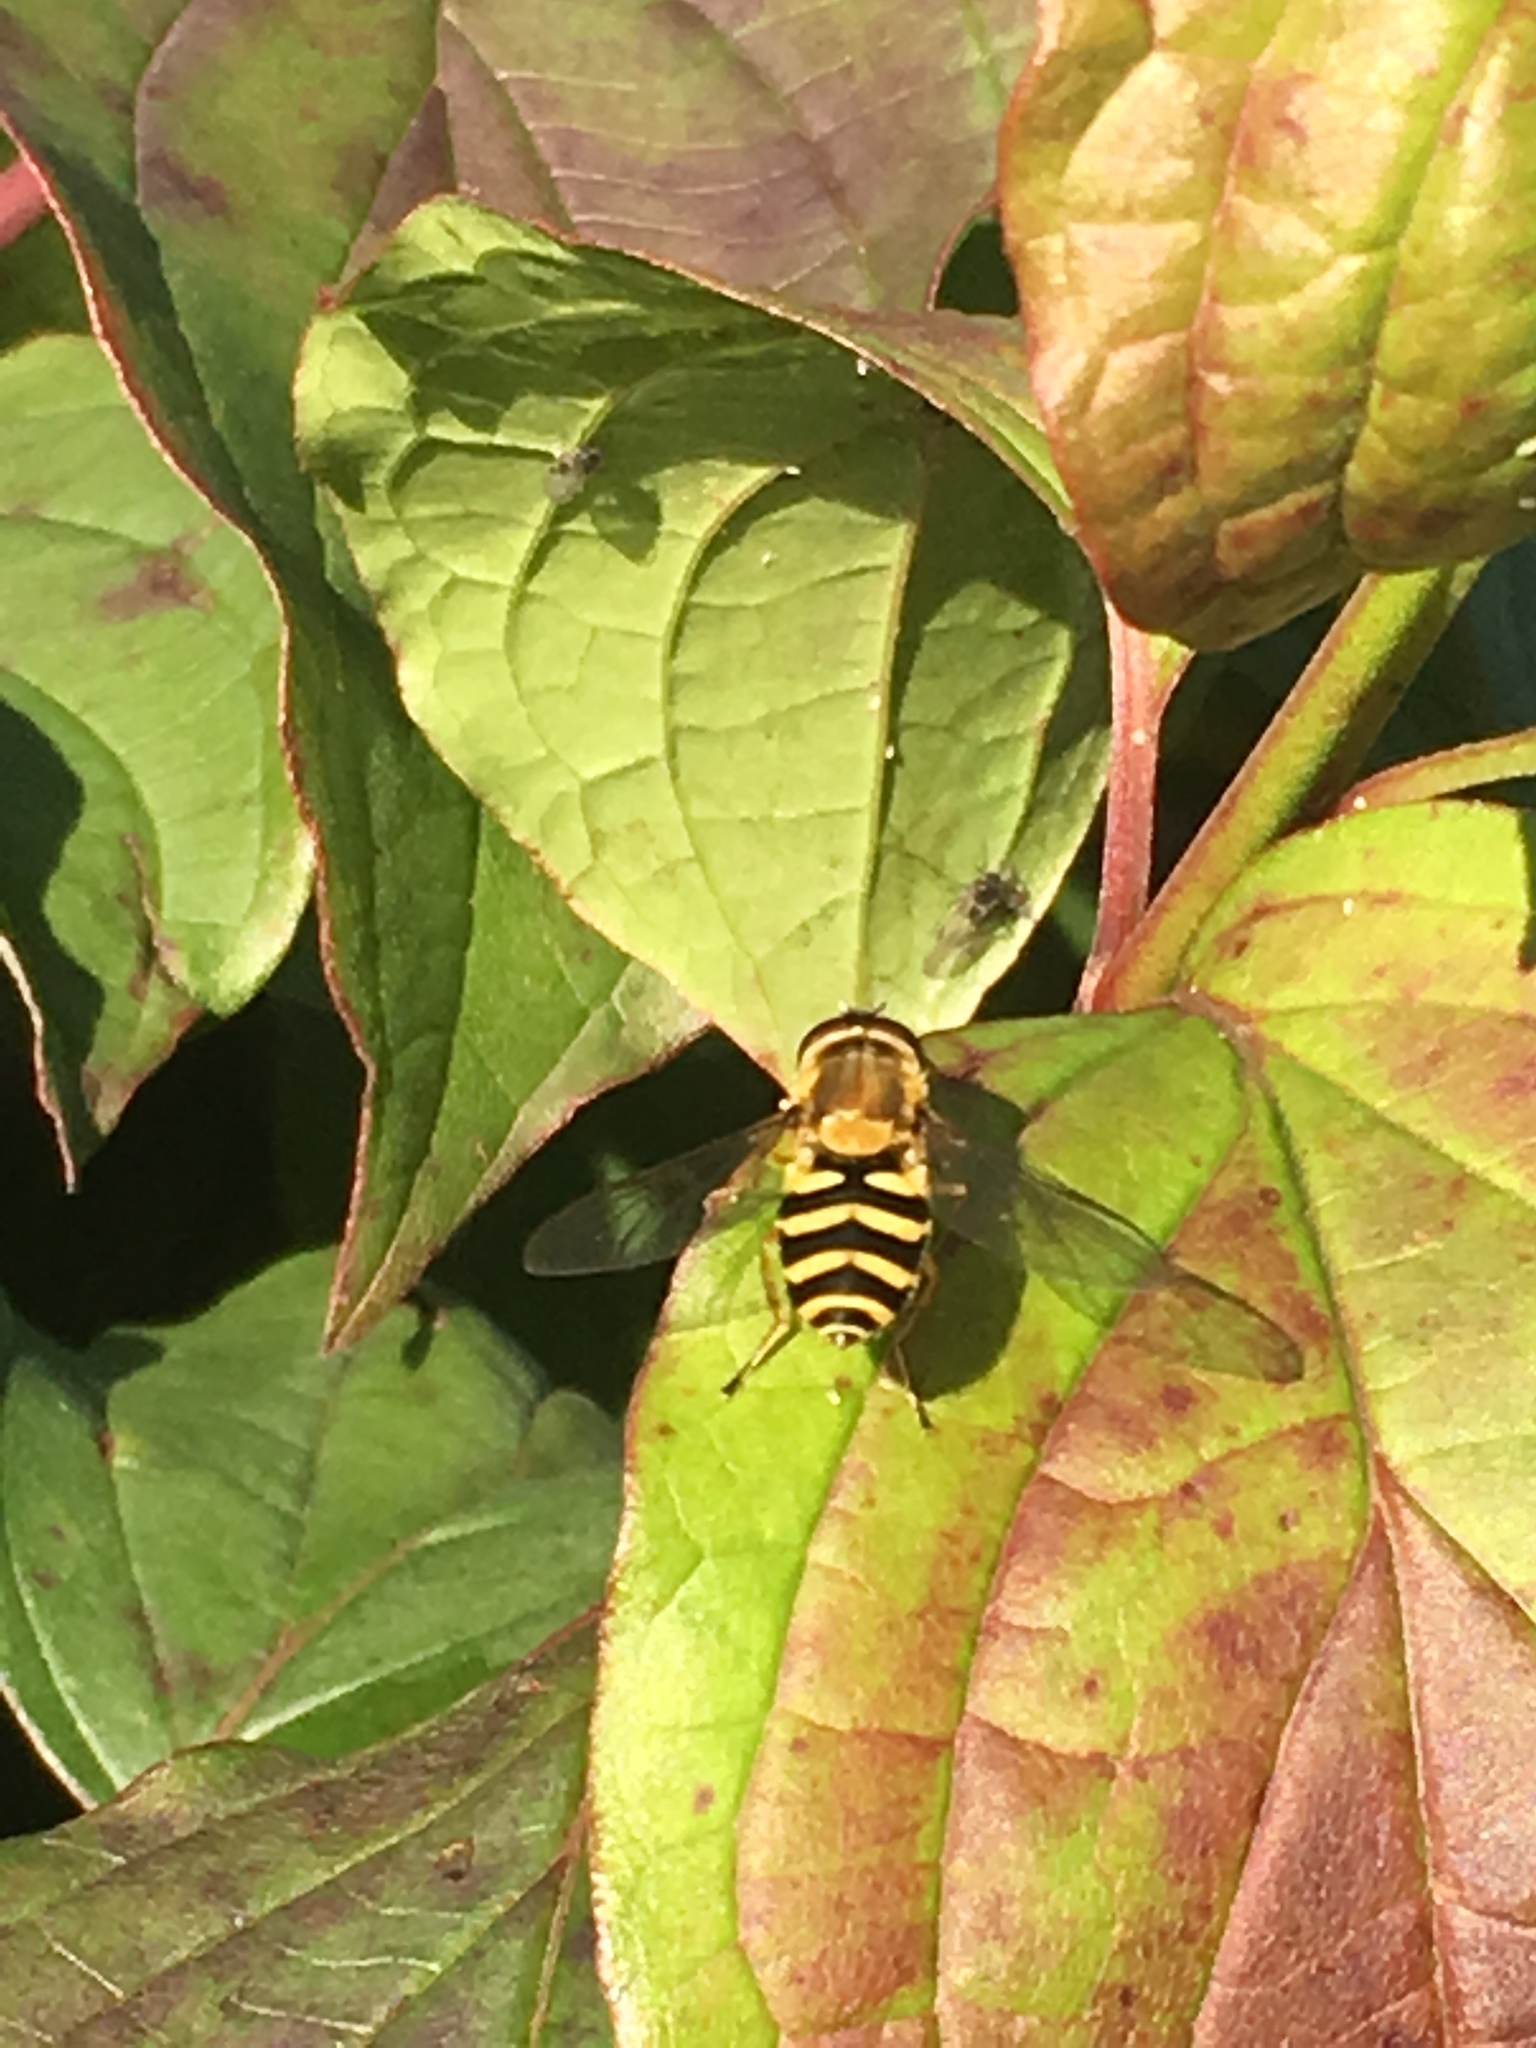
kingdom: Animalia
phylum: Arthropoda
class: Insecta
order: Diptera
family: Syrphidae
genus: Syrphus
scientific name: Syrphus
